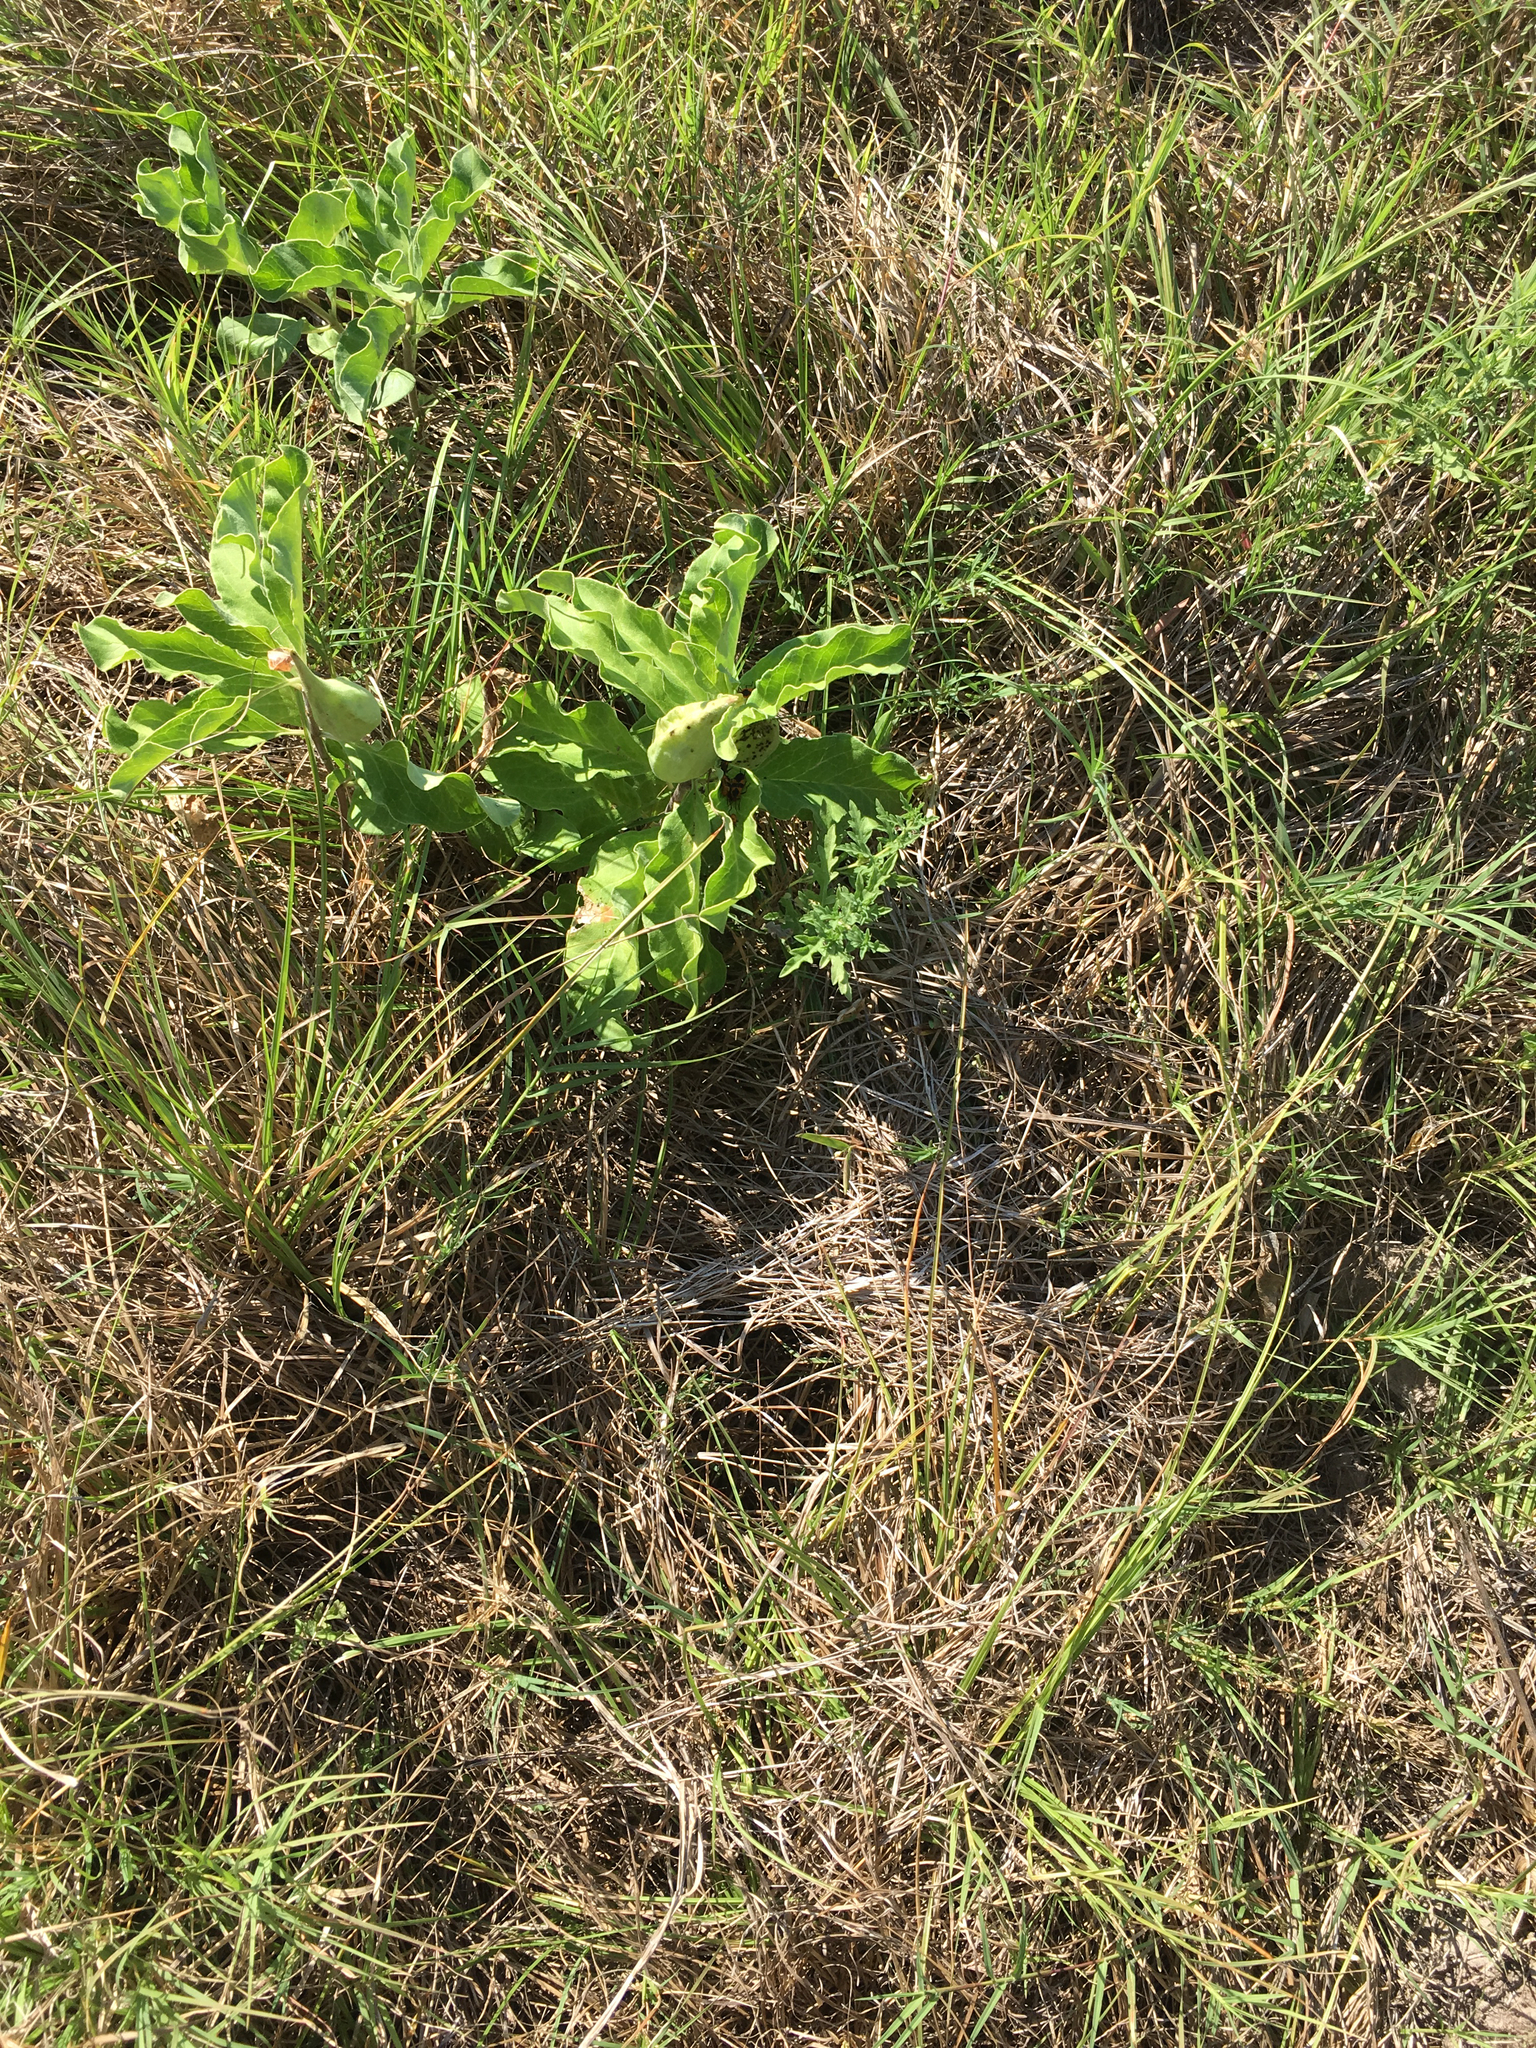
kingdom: Plantae
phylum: Tracheophyta
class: Magnoliopsida
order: Gentianales
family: Apocynaceae
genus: Asclepias
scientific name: Asclepias oenotheroides
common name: Zizotes milkweed
